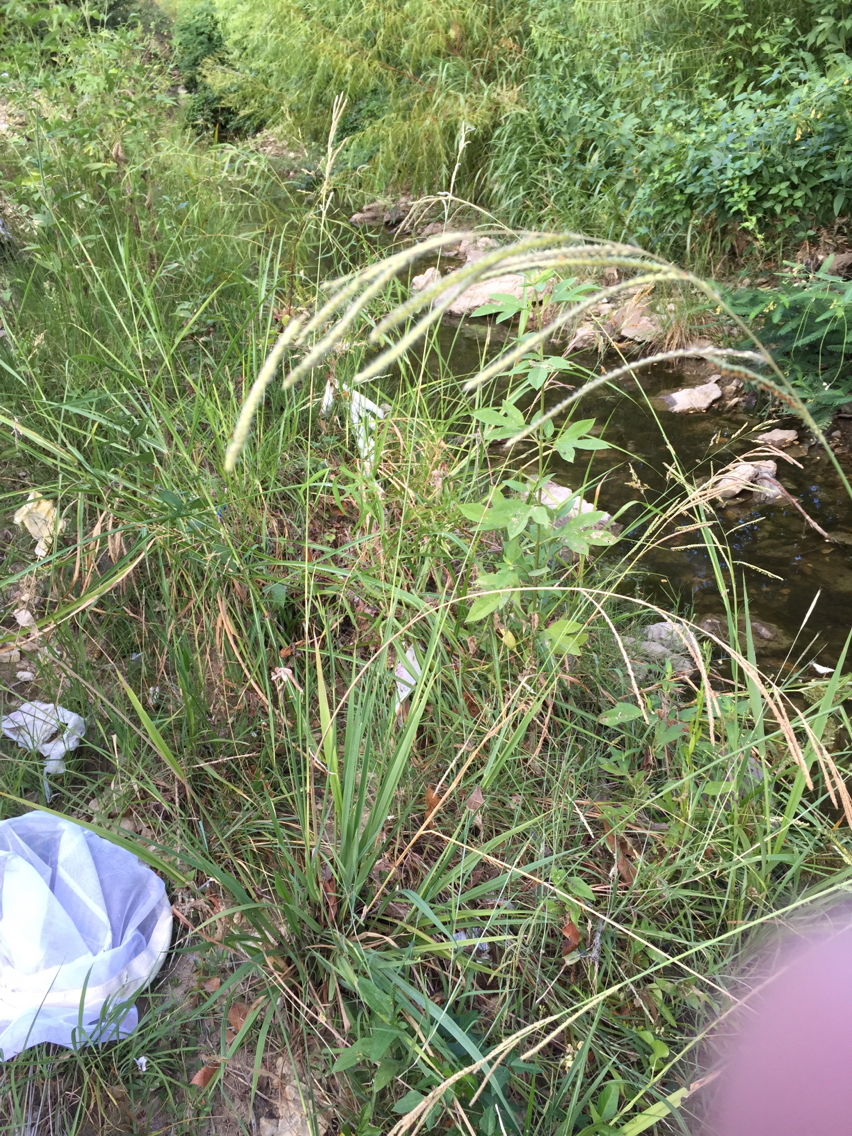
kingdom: Plantae
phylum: Tracheophyta
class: Liliopsida
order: Poales
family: Poaceae
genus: Paspalum
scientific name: Paspalum urvillei
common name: Vasey's grass
